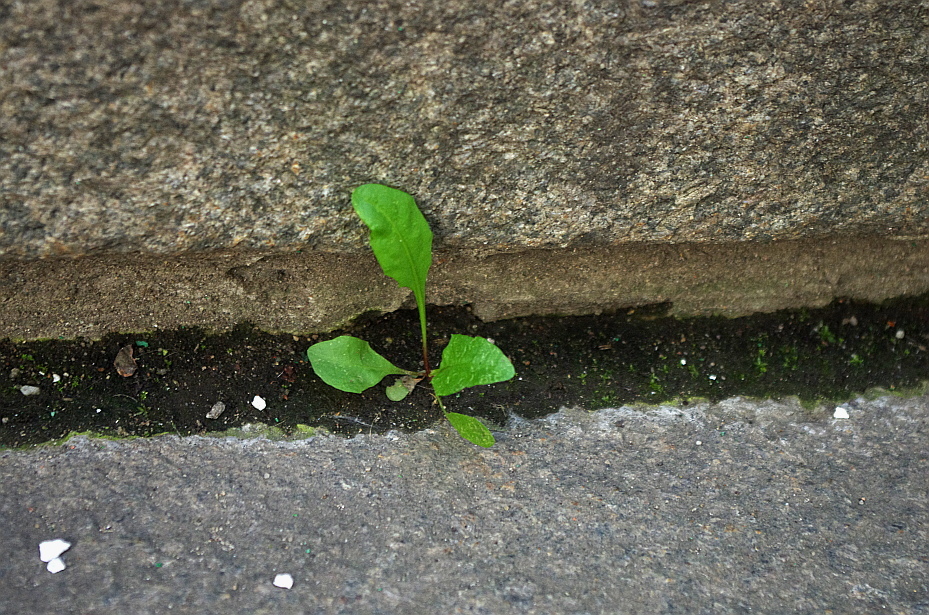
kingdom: Plantae
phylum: Tracheophyta
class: Magnoliopsida
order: Asterales
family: Asteraceae
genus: Taraxacum
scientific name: Taraxacum officinale
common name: Common dandelion
